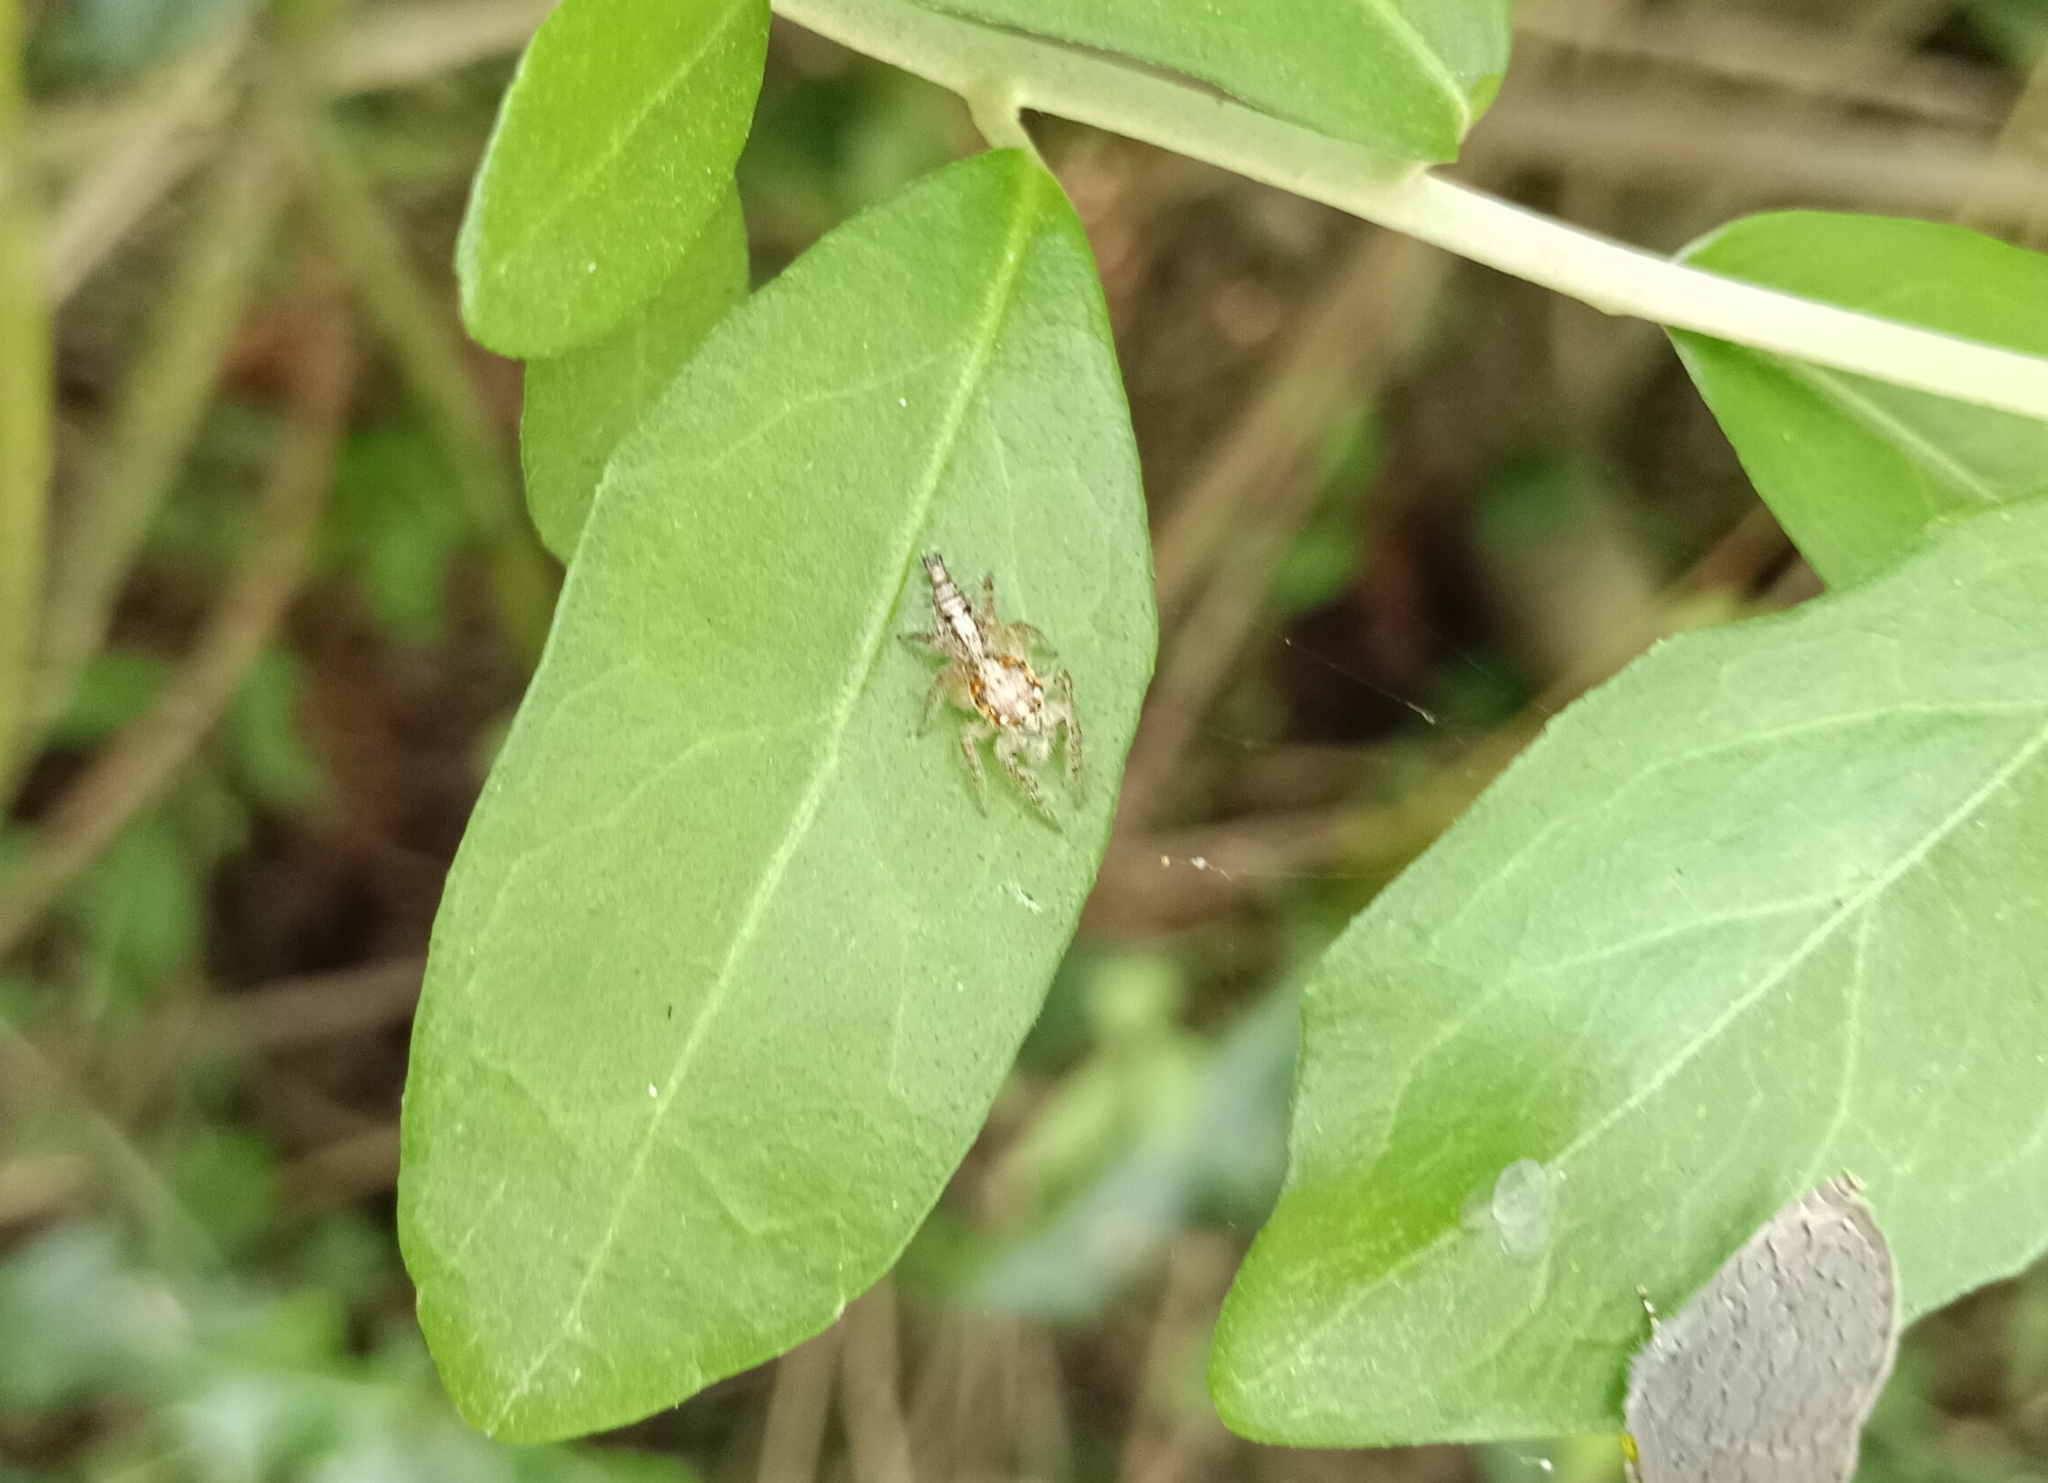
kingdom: Animalia
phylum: Arthropoda
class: Arachnida
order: Araneae
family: Salticidae
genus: Hyllus
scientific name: Hyllus semicupreus
